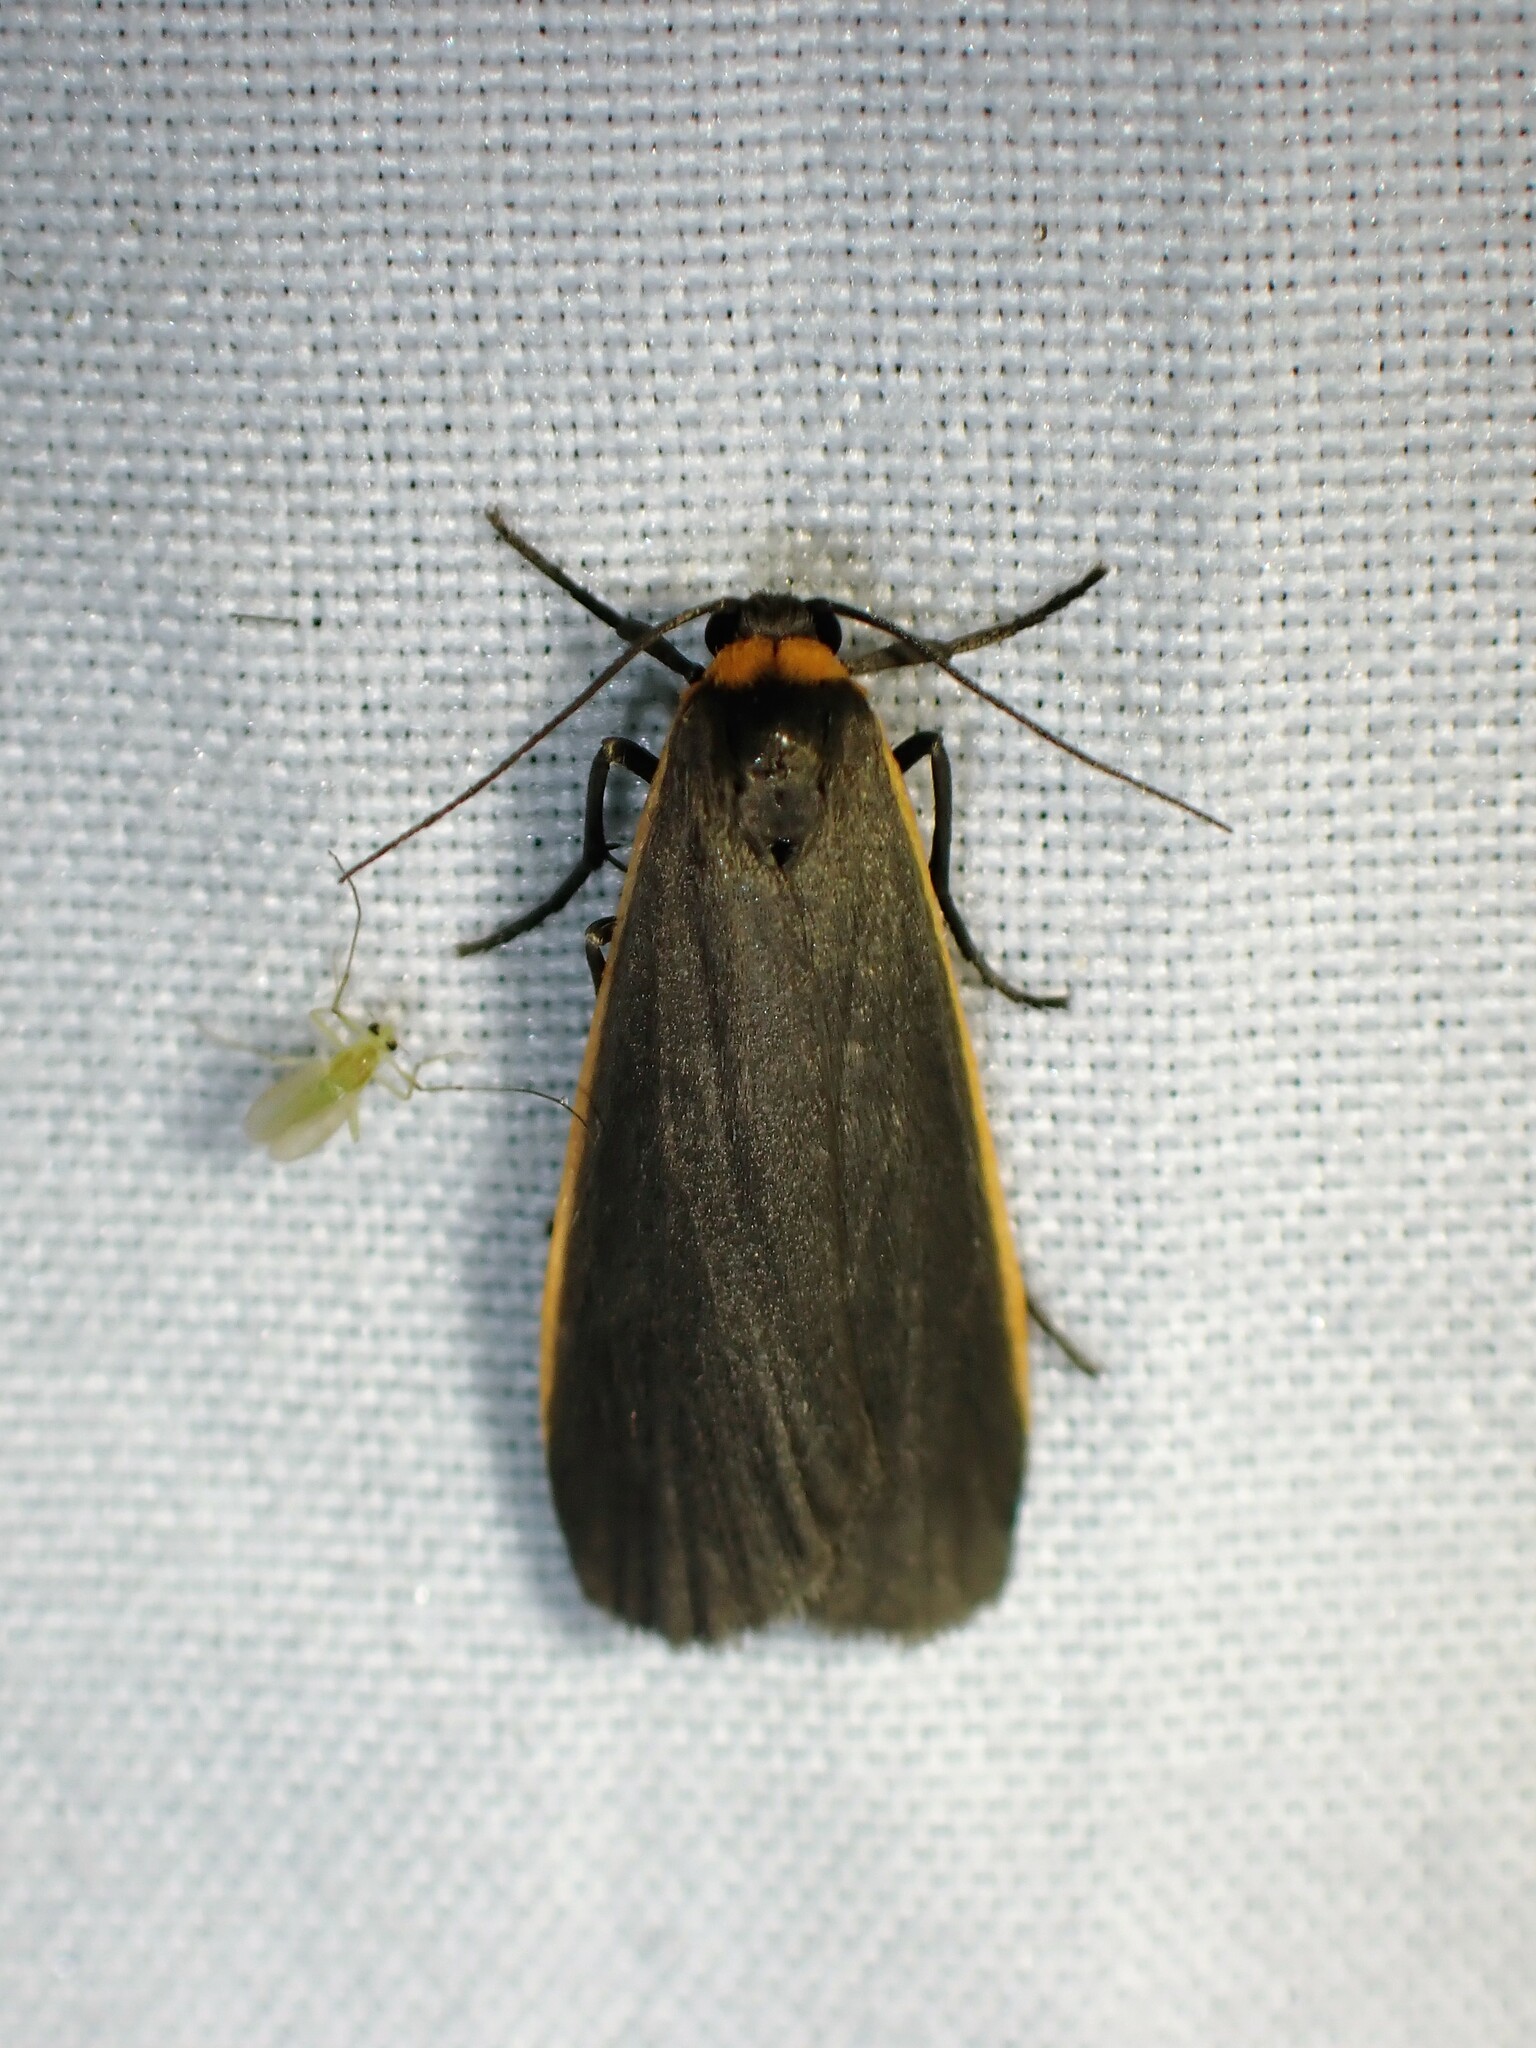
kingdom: Animalia
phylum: Arthropoda
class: Insecta
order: Lepidoptera
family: Erebidae
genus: Manulea
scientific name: Manulea bicolor
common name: Bicolored moth
